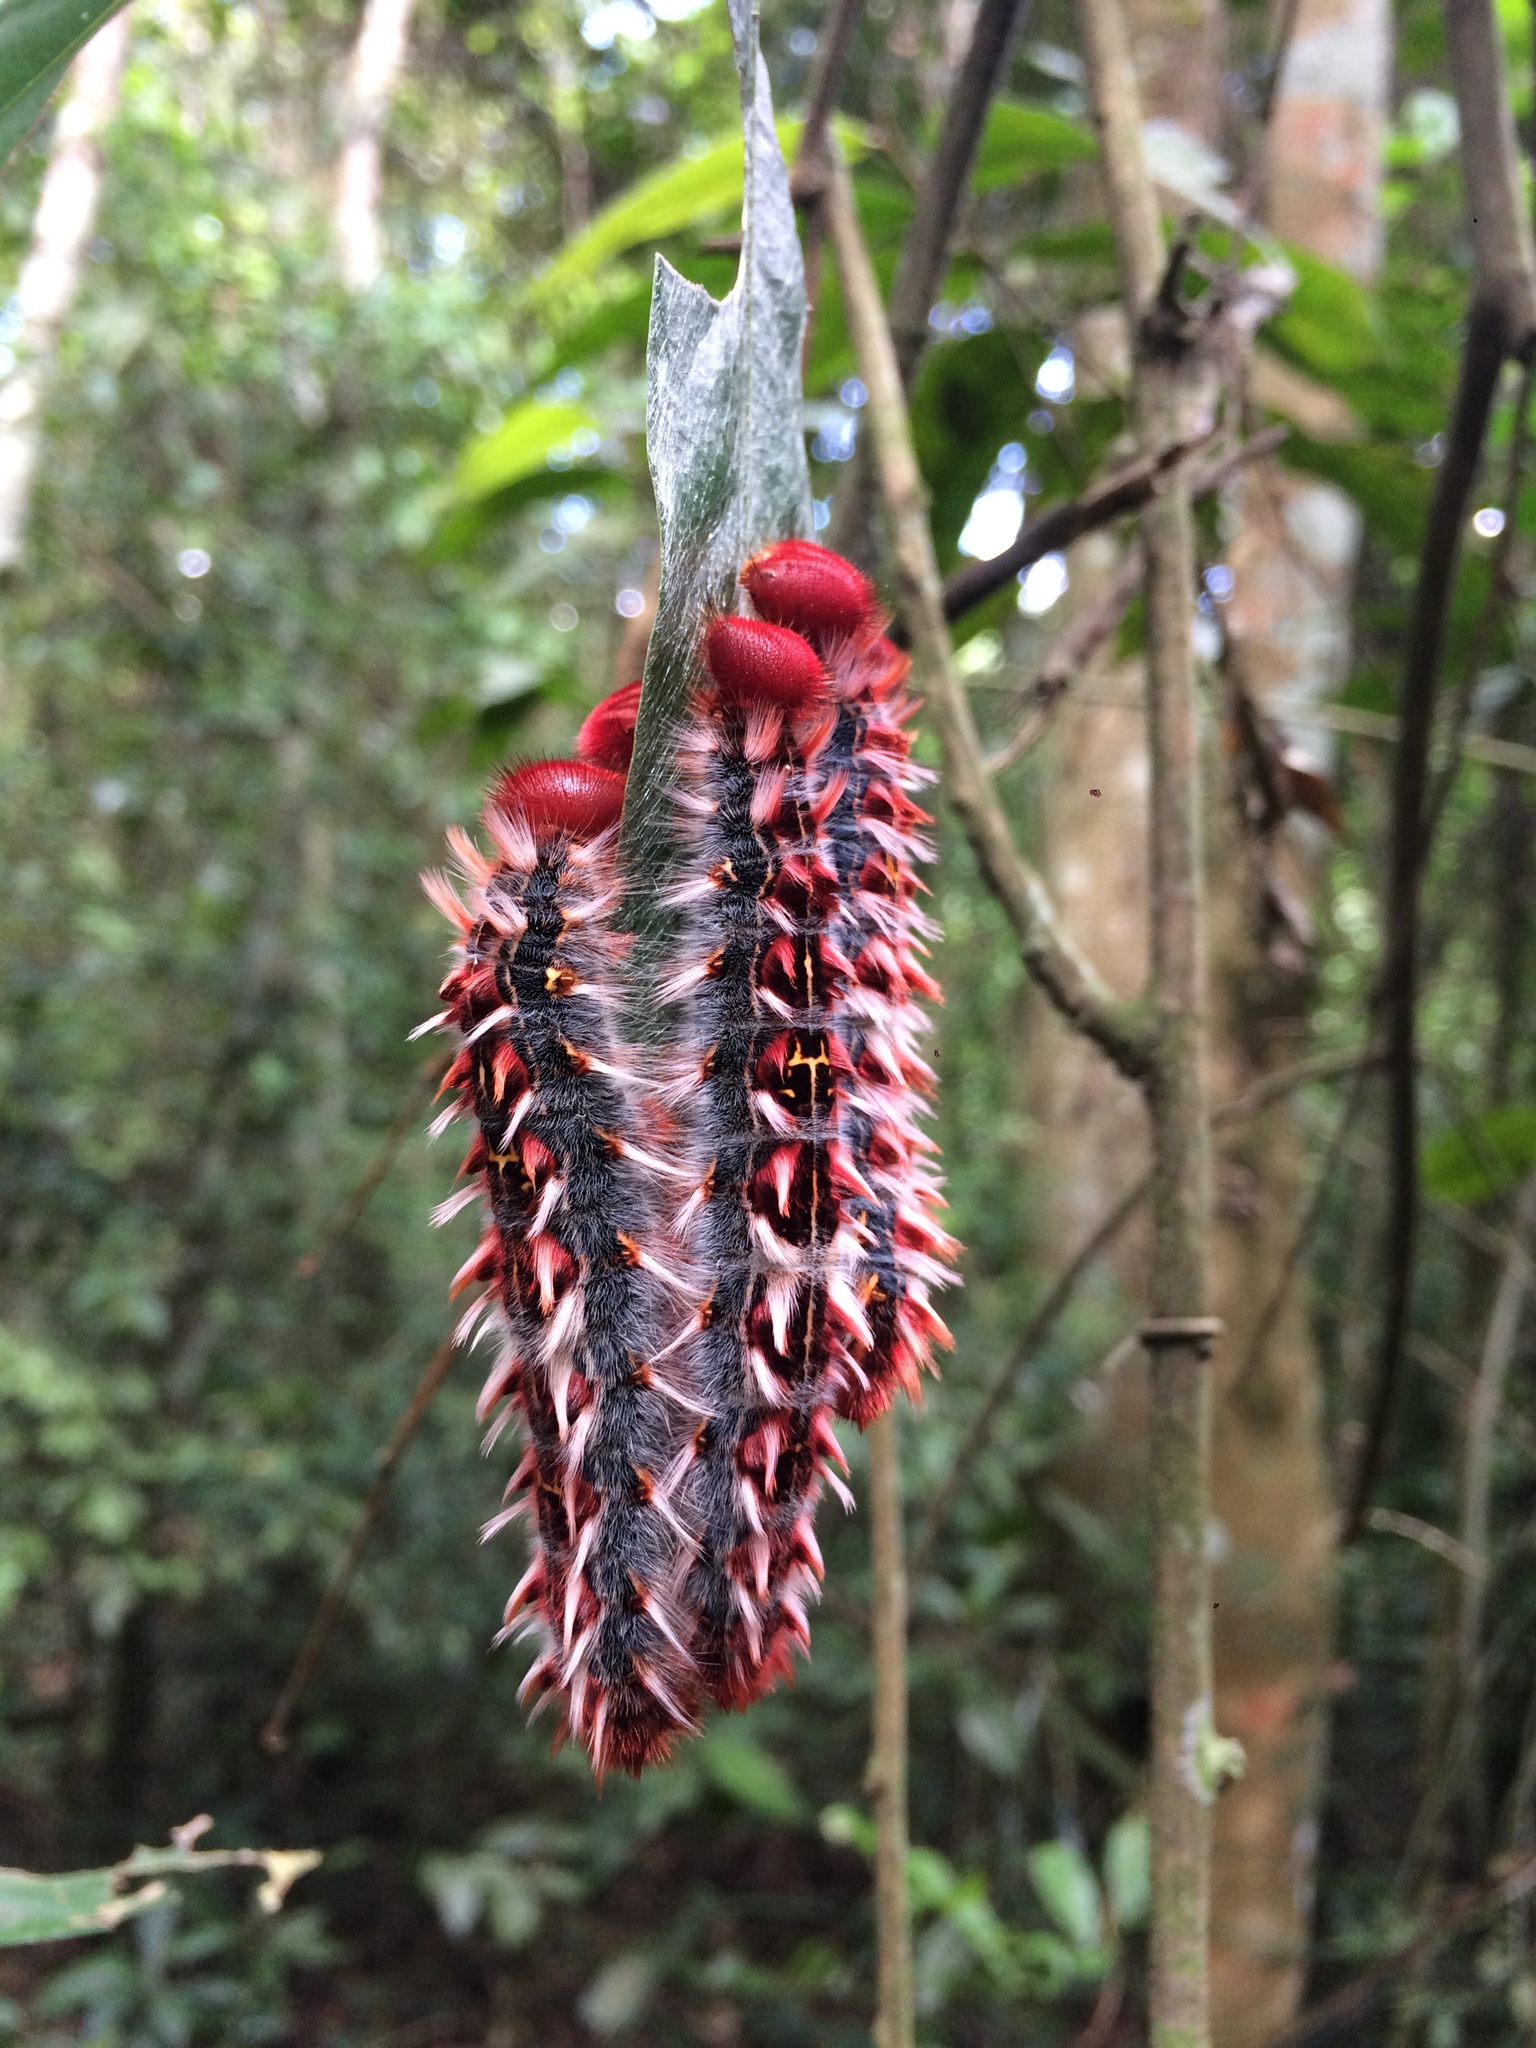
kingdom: Animalia
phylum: Arthropoda
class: Insecta
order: Lepidoptera
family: Nymphalidae
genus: Morpho
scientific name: Morpho epistrophus
